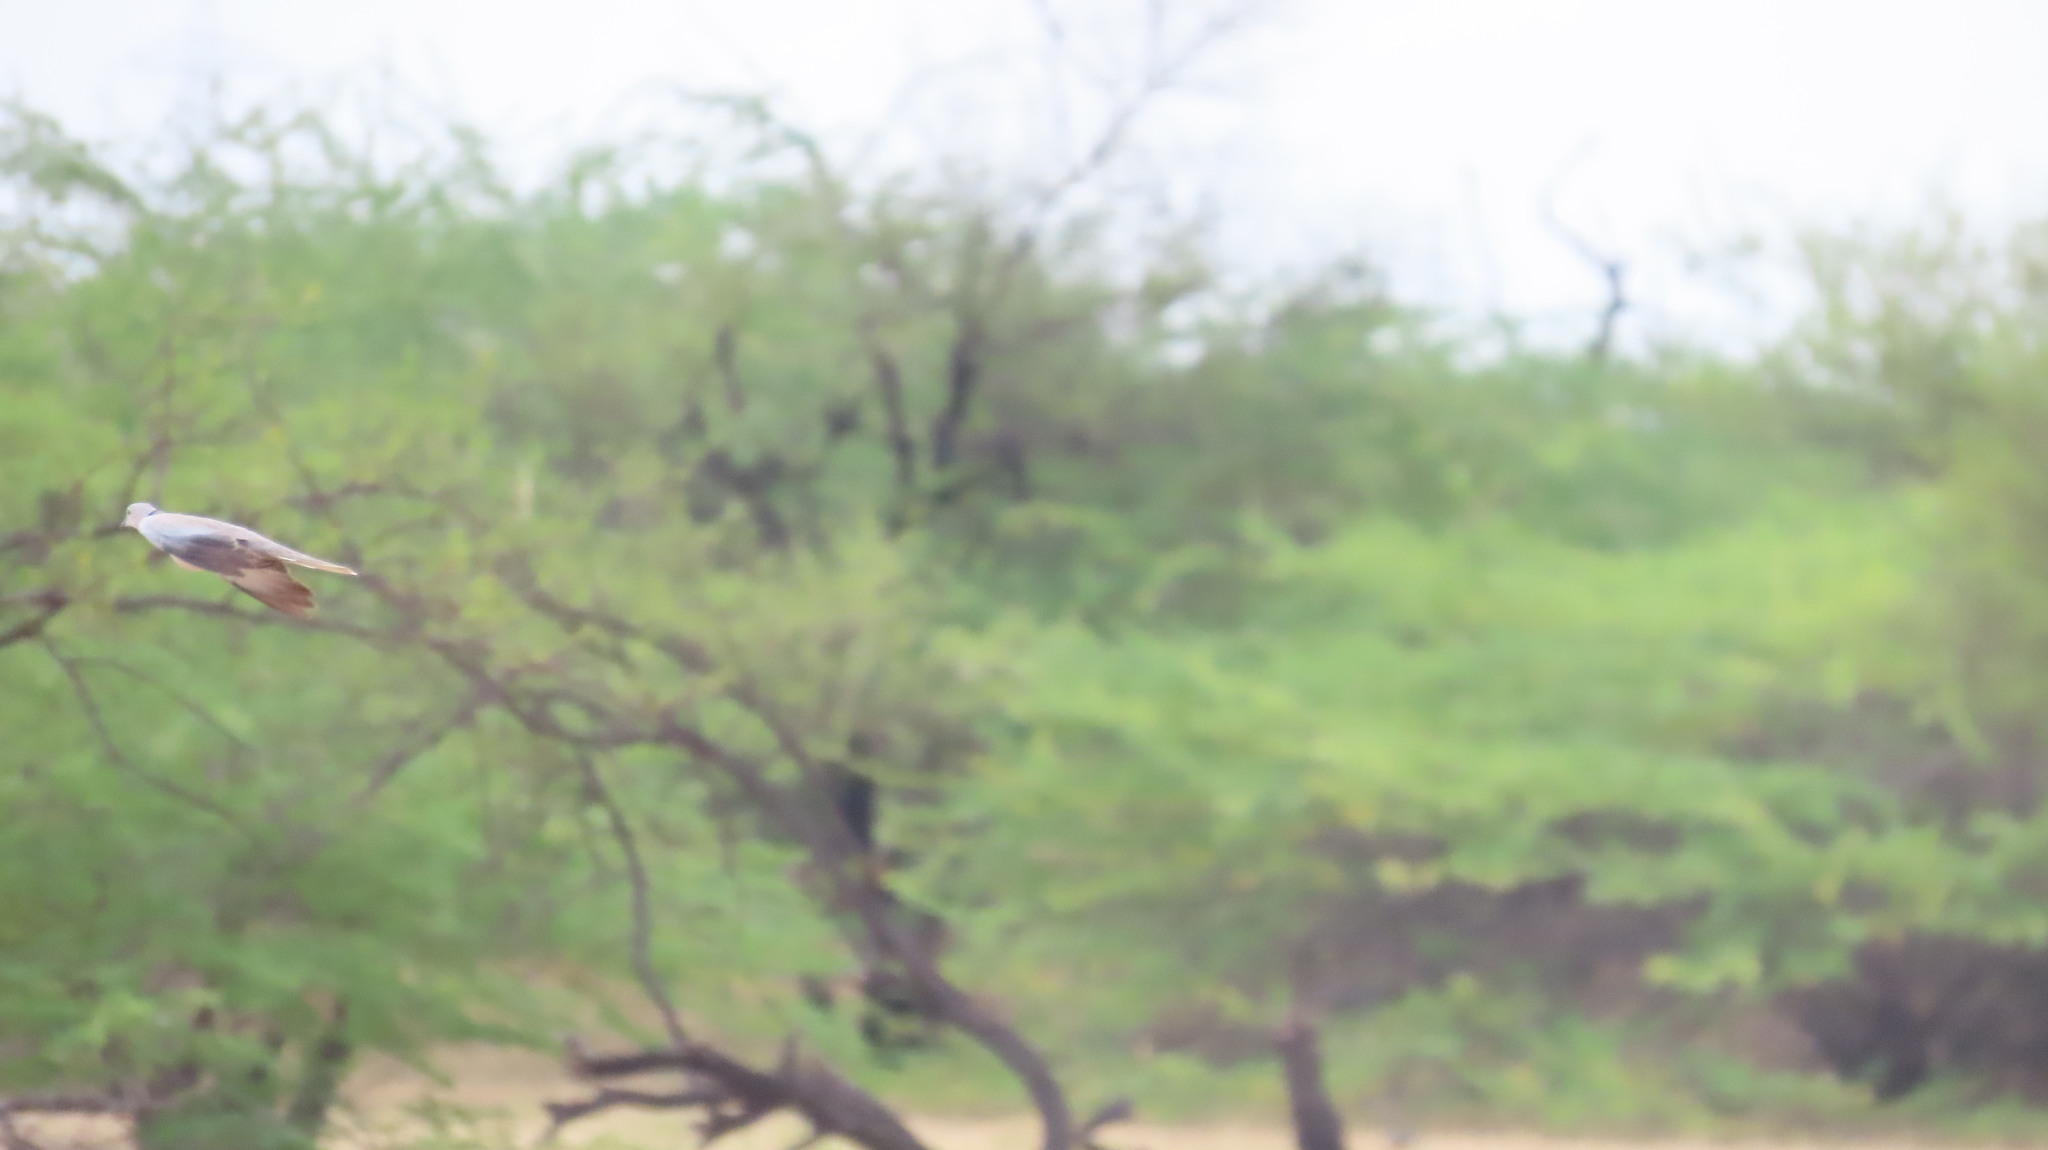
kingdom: Animalia
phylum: Chordata
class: Aves
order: Columbiformes
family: Columbidae
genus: Streptopelia
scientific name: Streptopelia decaocto
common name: Eurasian collared dove
